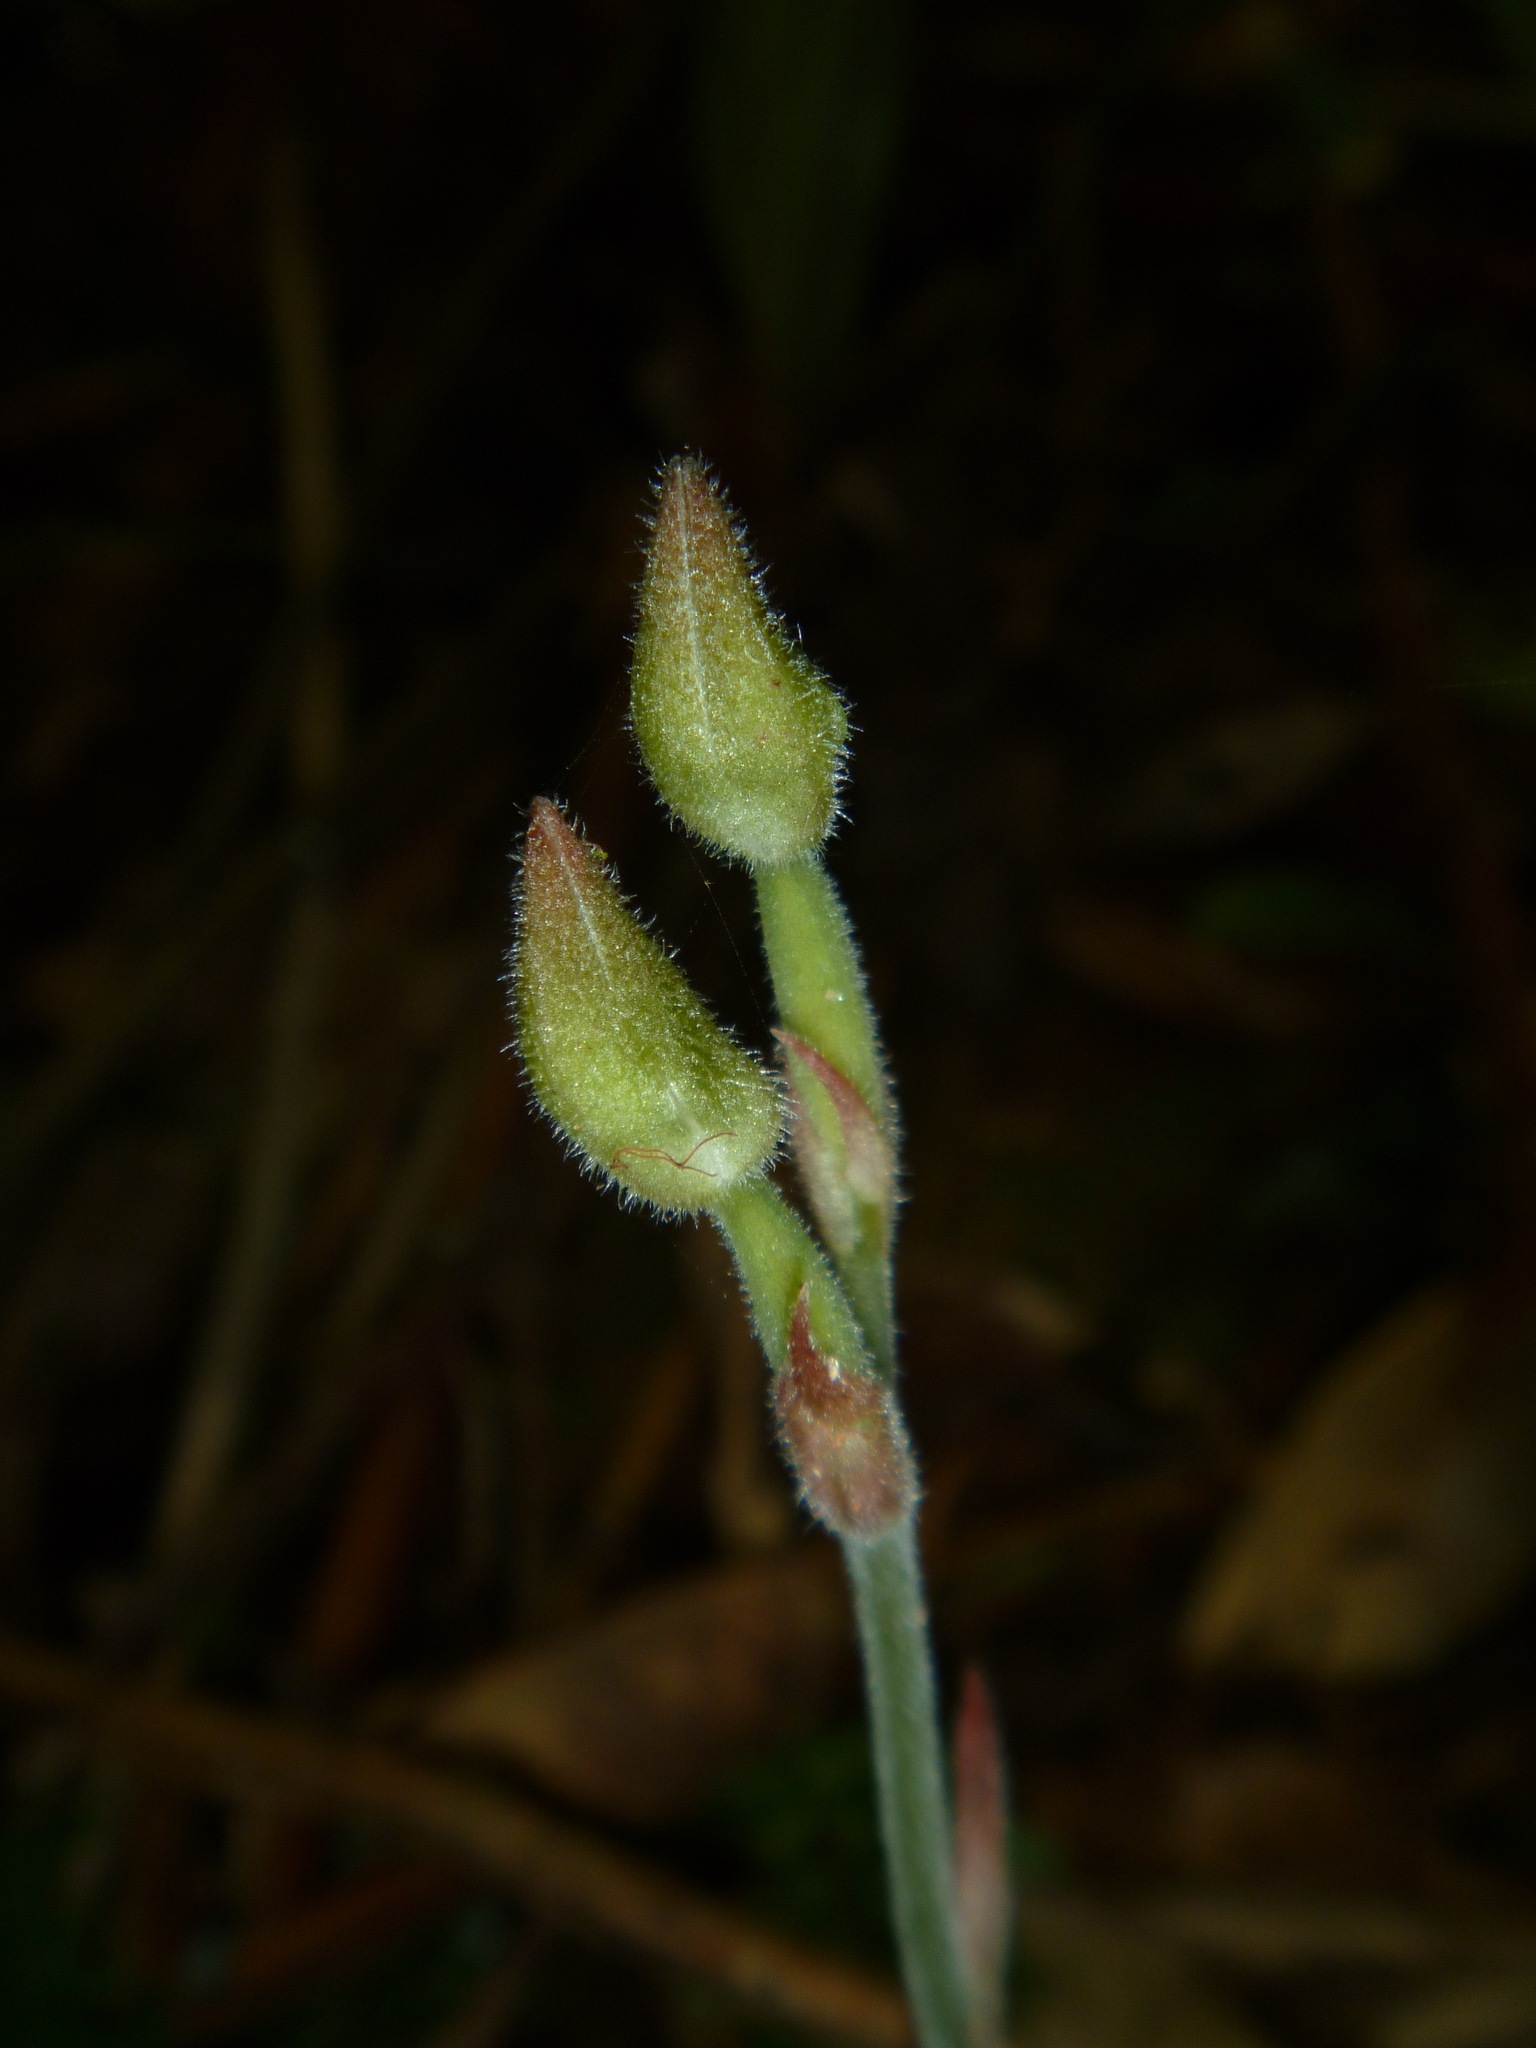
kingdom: Plantae
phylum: Tracheophyta
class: Liliopsida
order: Asparagales
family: Orchidaceae
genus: Anoectochilus
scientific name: Anoectochilus subregularis
